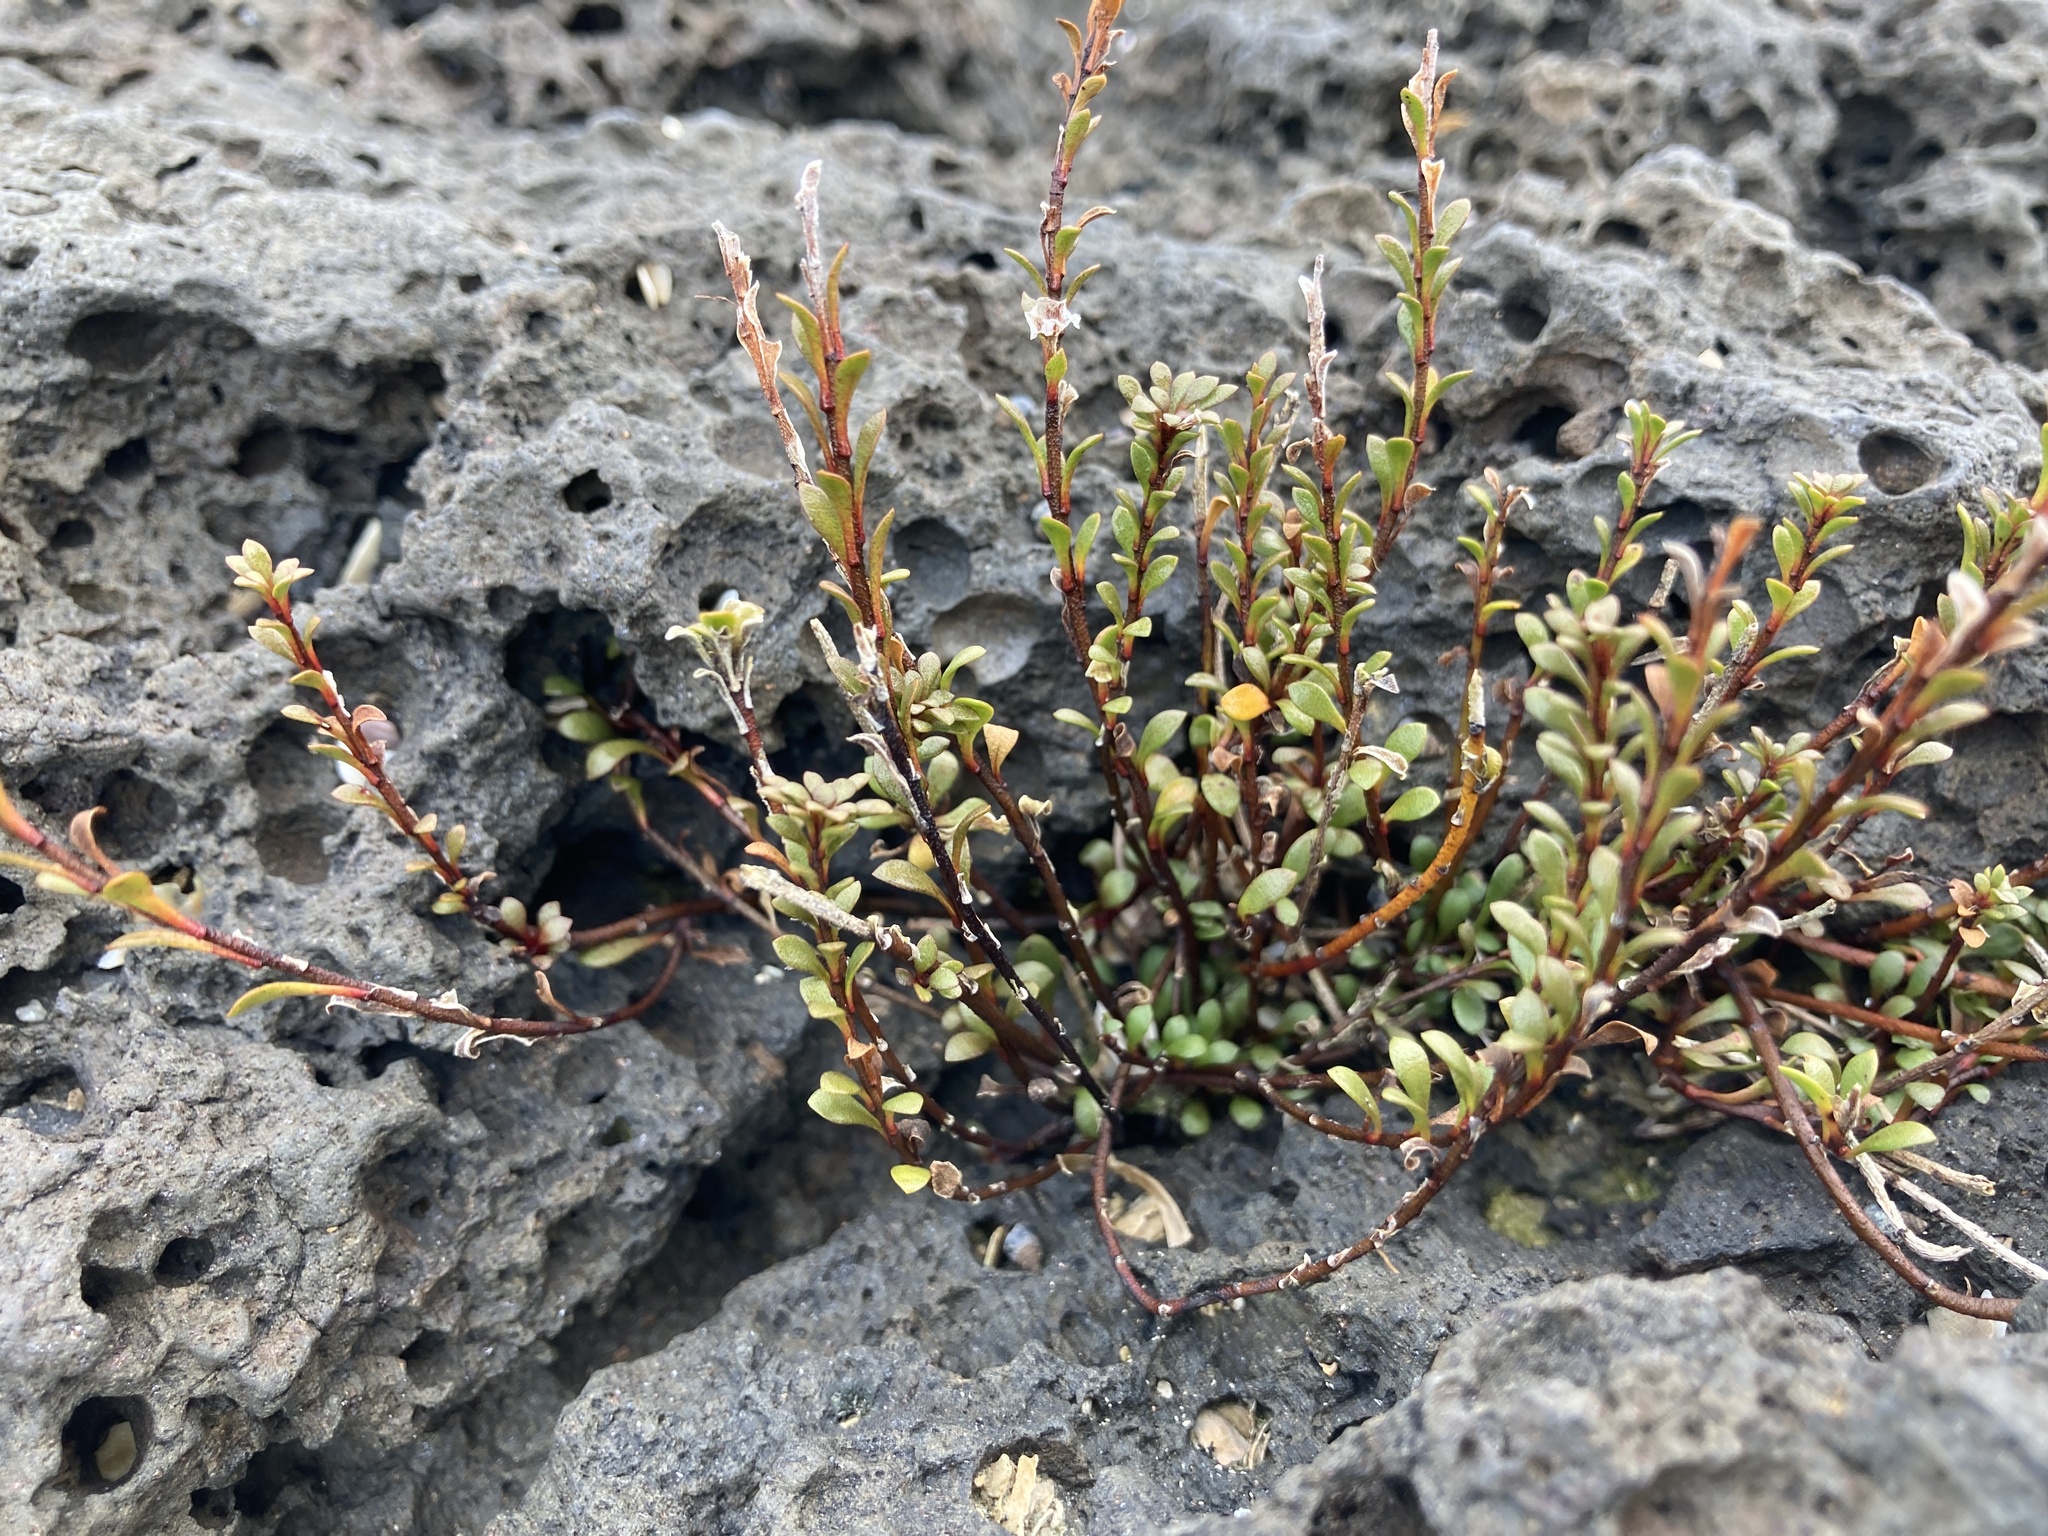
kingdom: Plantae
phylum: Tracheophyta
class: Magnoliopsida
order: Ericales
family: Primulaceae
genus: Samolus
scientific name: Samolus repens
